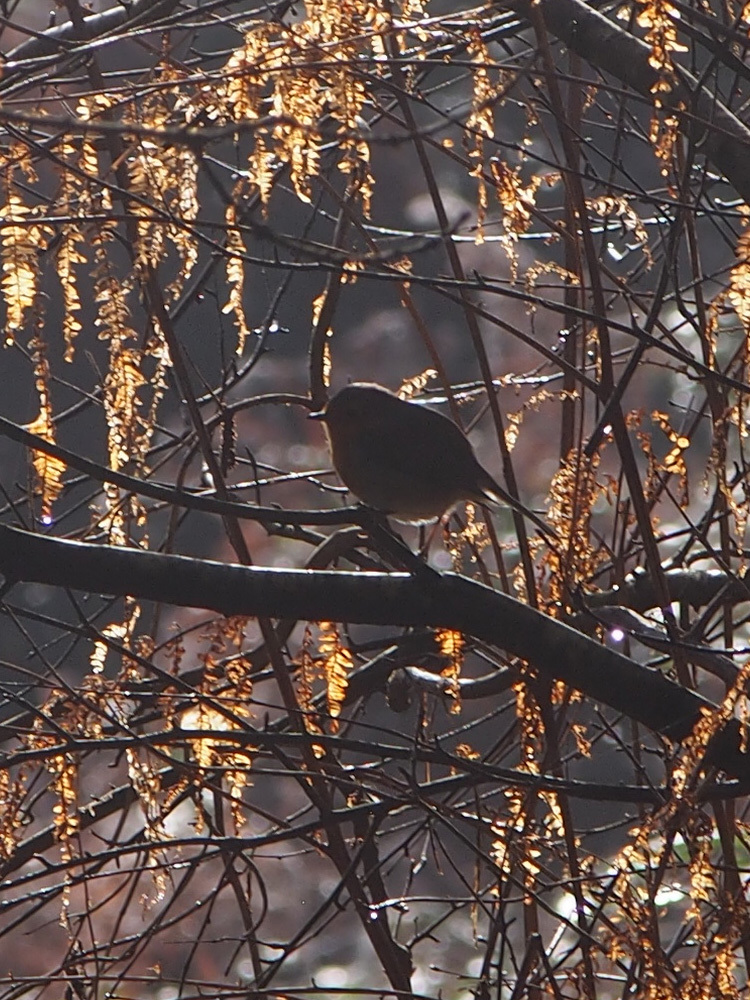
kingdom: Animalia
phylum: Chordata
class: Aves
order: Passeriformes
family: Muscicapidae
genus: Erithacus
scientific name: Erithacus rubecula
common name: European robin
